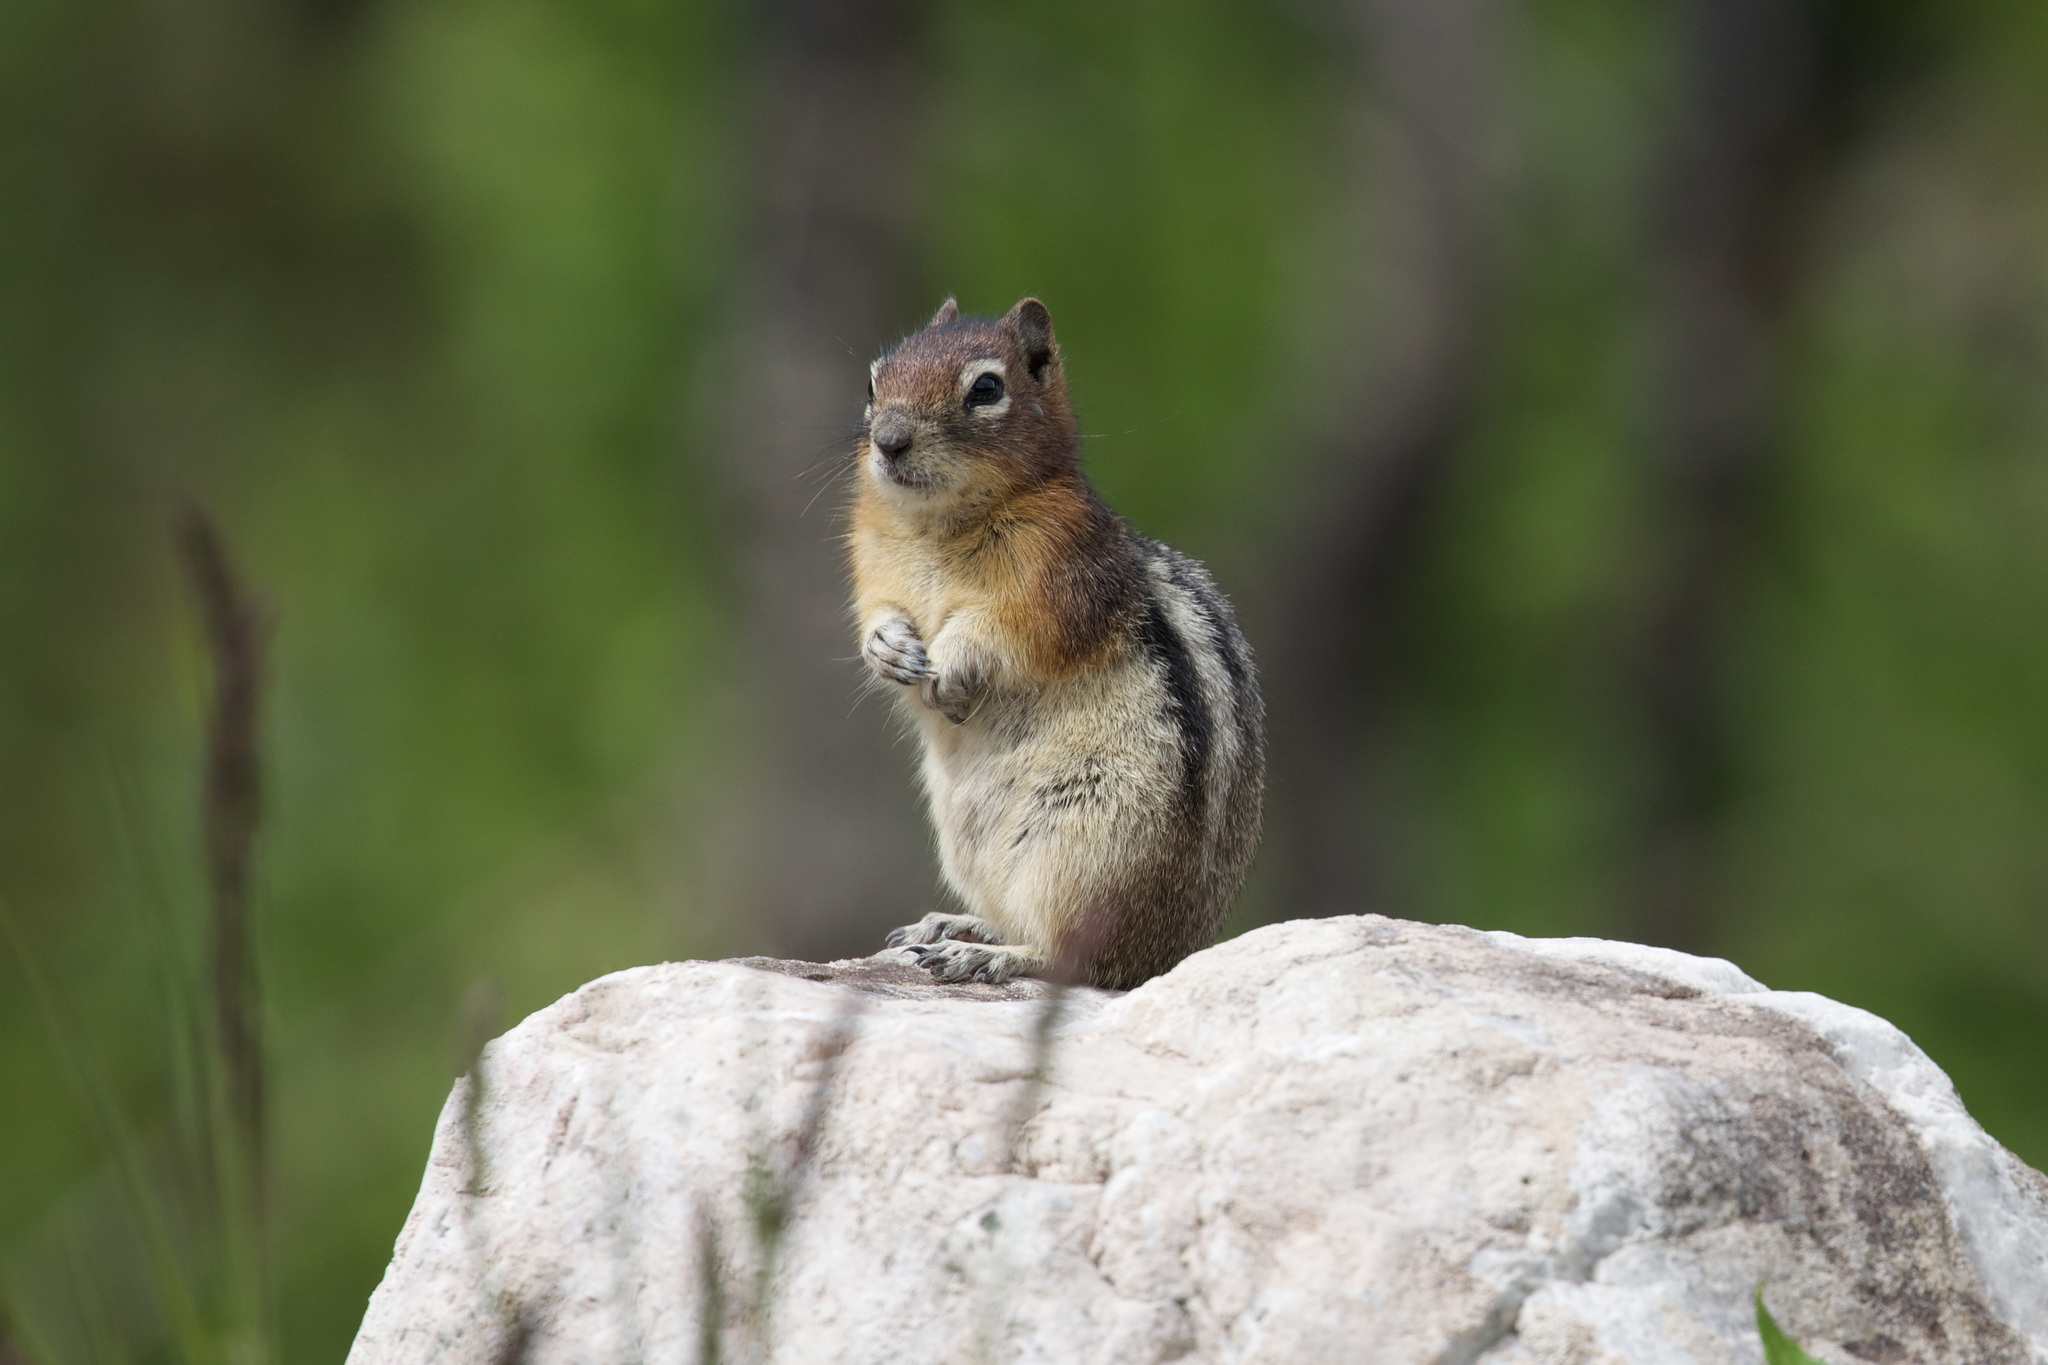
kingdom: Animalia
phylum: Chordata
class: Mammalia
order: Rodentia
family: Sciuridae
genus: Callospermophilus
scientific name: Callospermophilus lateralis
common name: Golden-mantled ground squirrel
